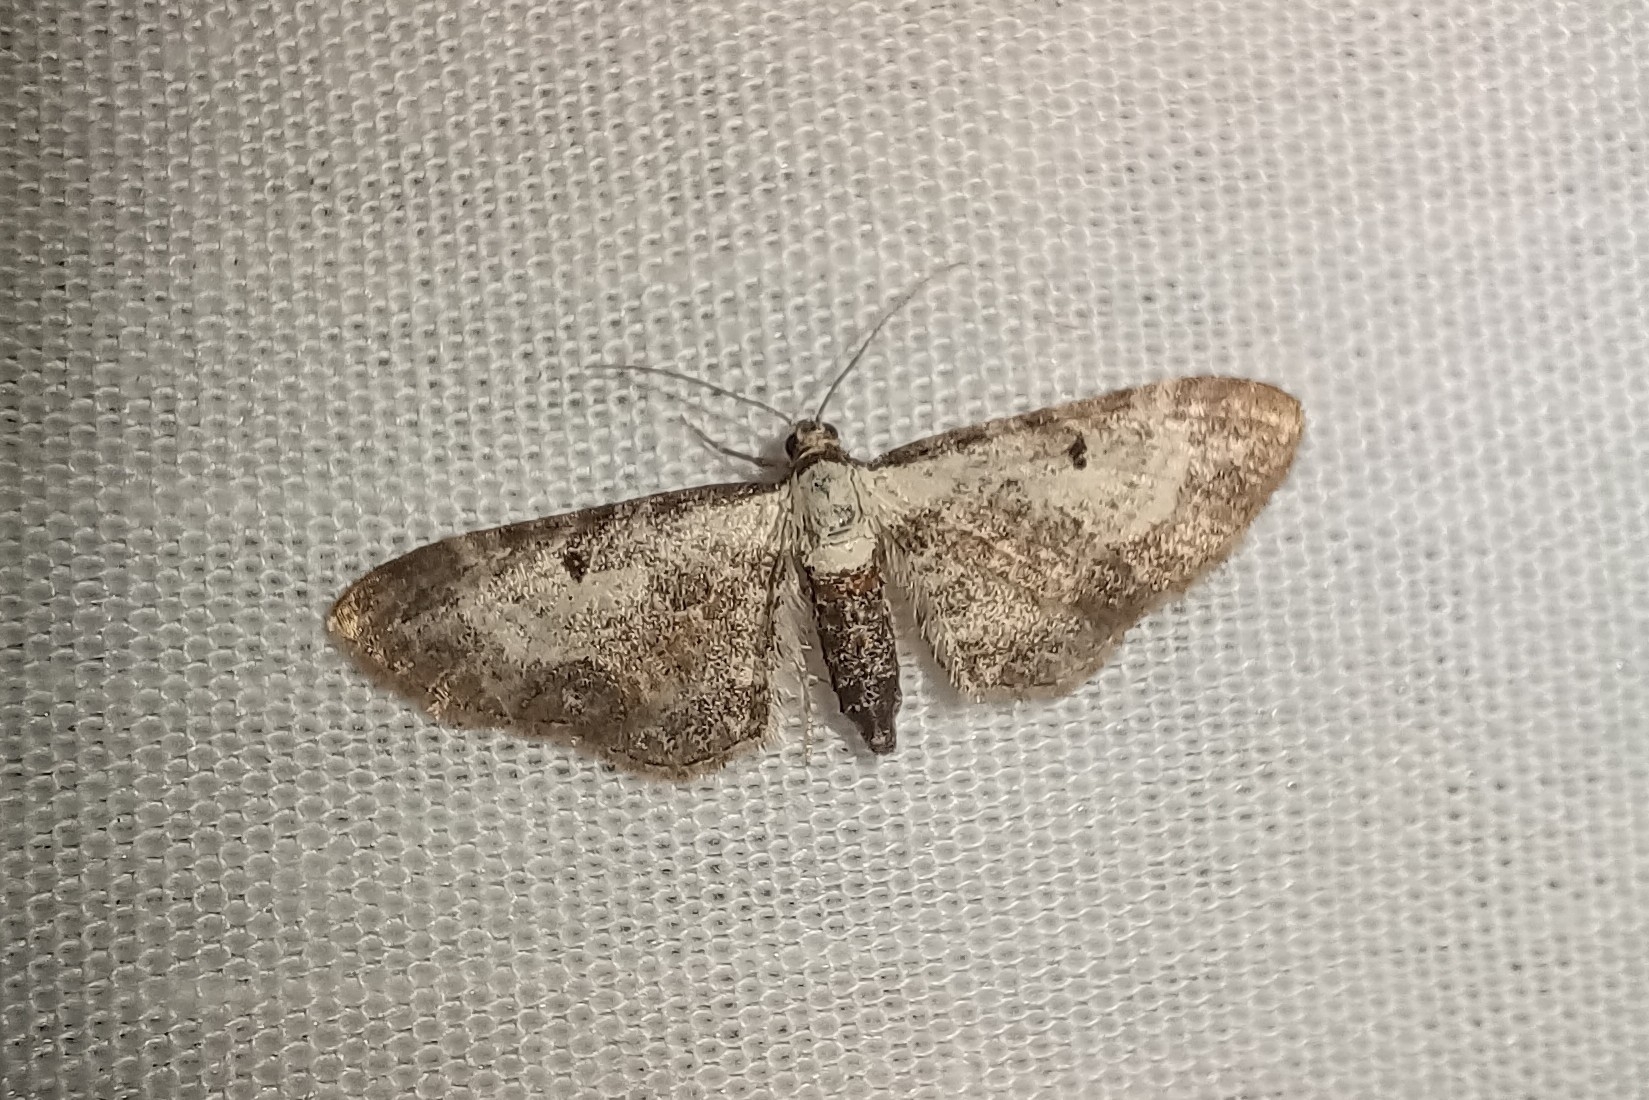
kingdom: Animalia
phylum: Arthropoda
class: Insecta
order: Lepidoptera
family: Geometridae
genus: Eupithecia
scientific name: Eupithecia succenturiata
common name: Bordered pug
